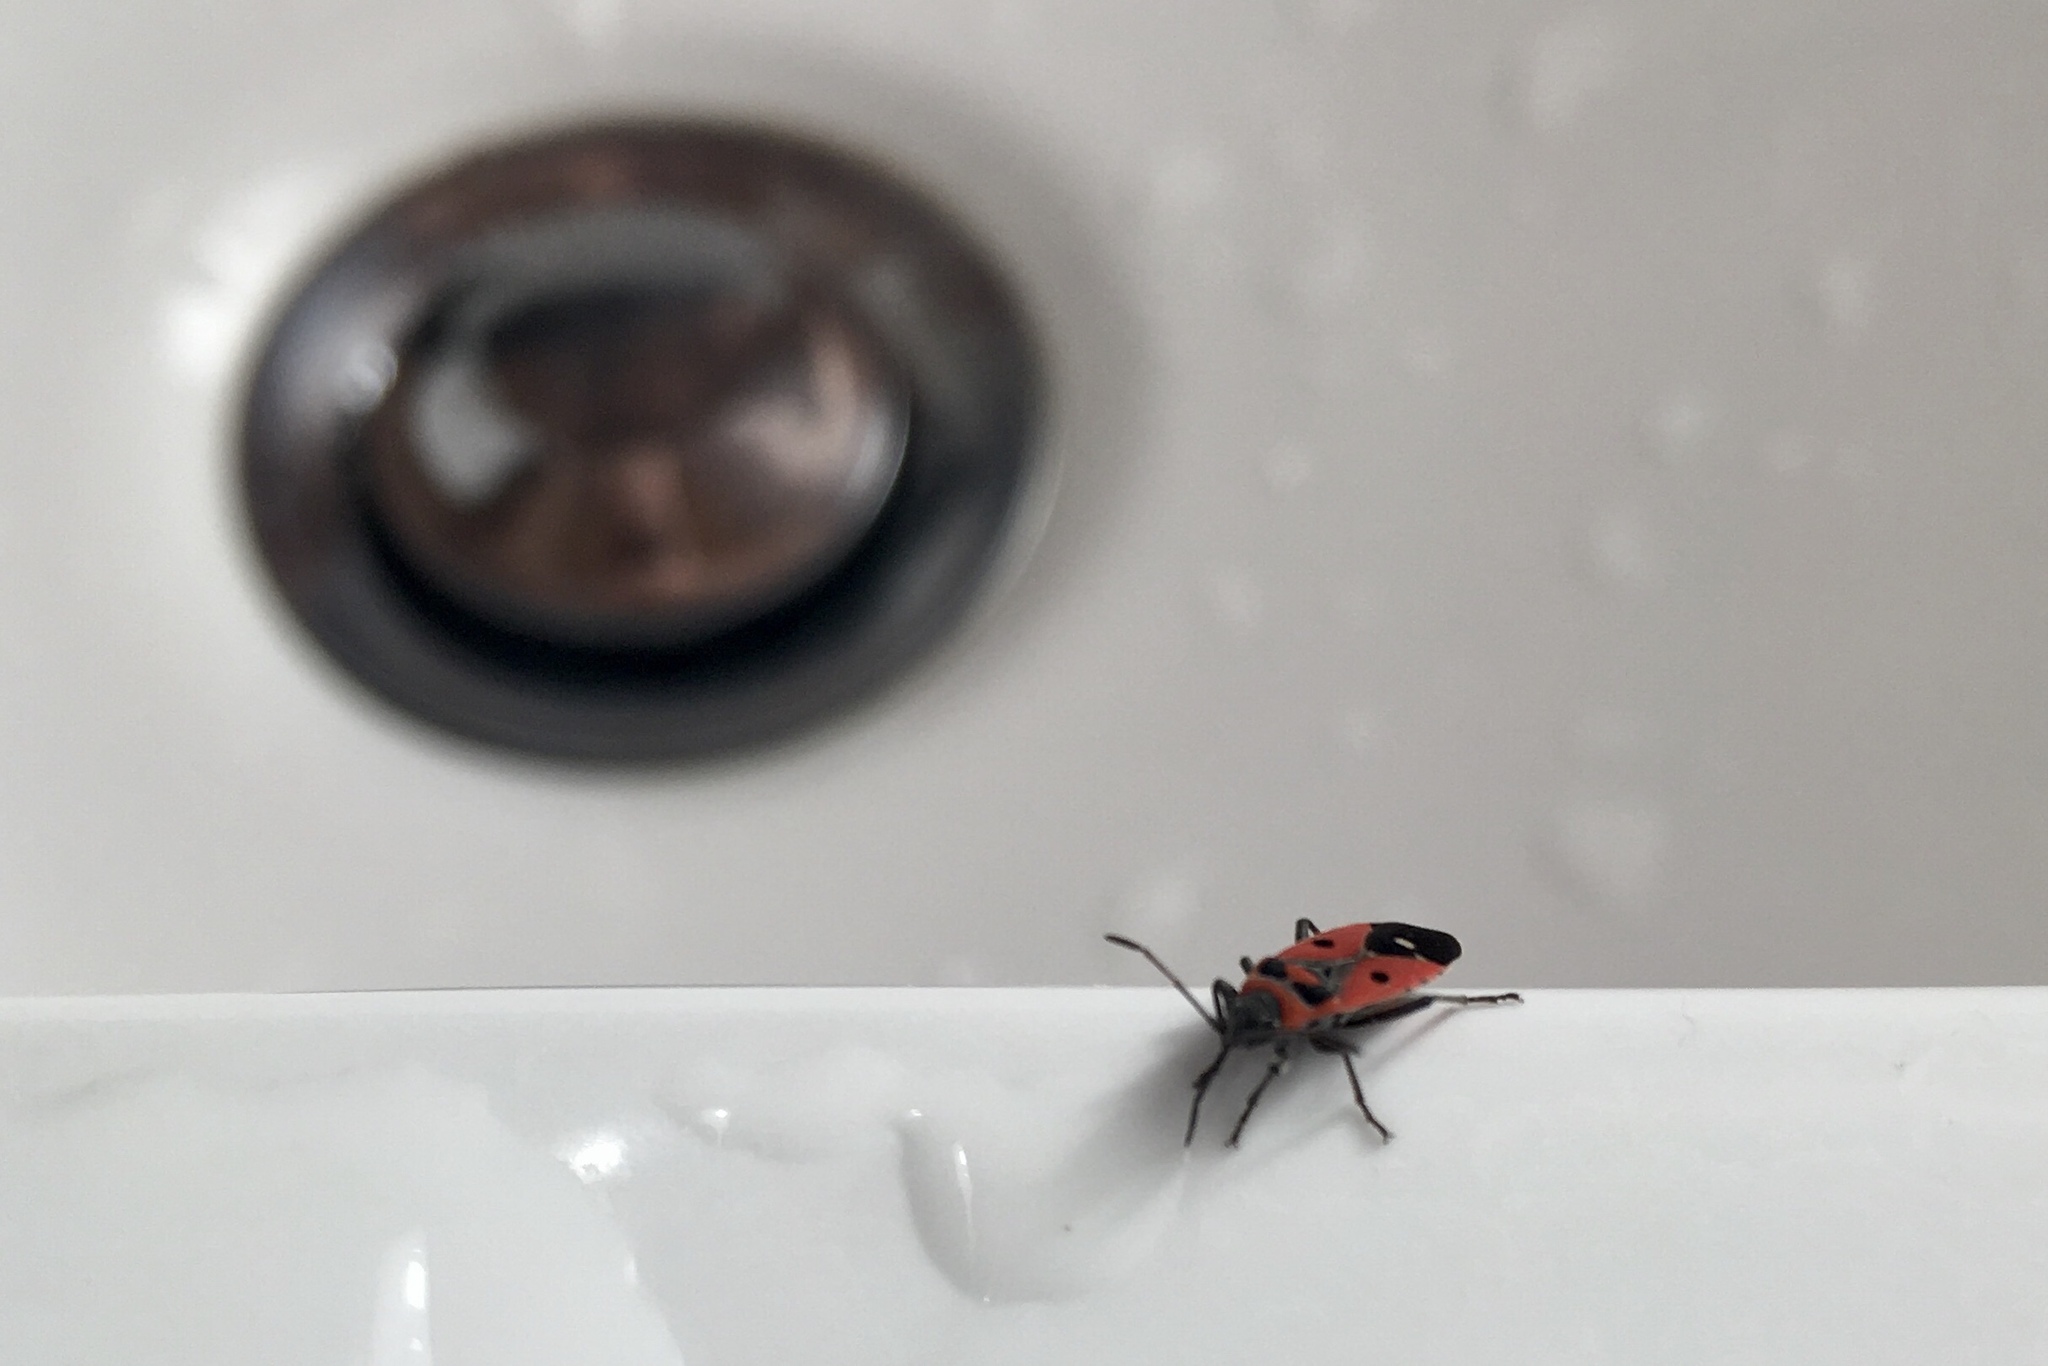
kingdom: Animalia
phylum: Arthropoda
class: Insecta
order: Hemiptera
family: Lygaeidae
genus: Melanocoryphus
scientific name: Melanocoryphus albomaculatus
